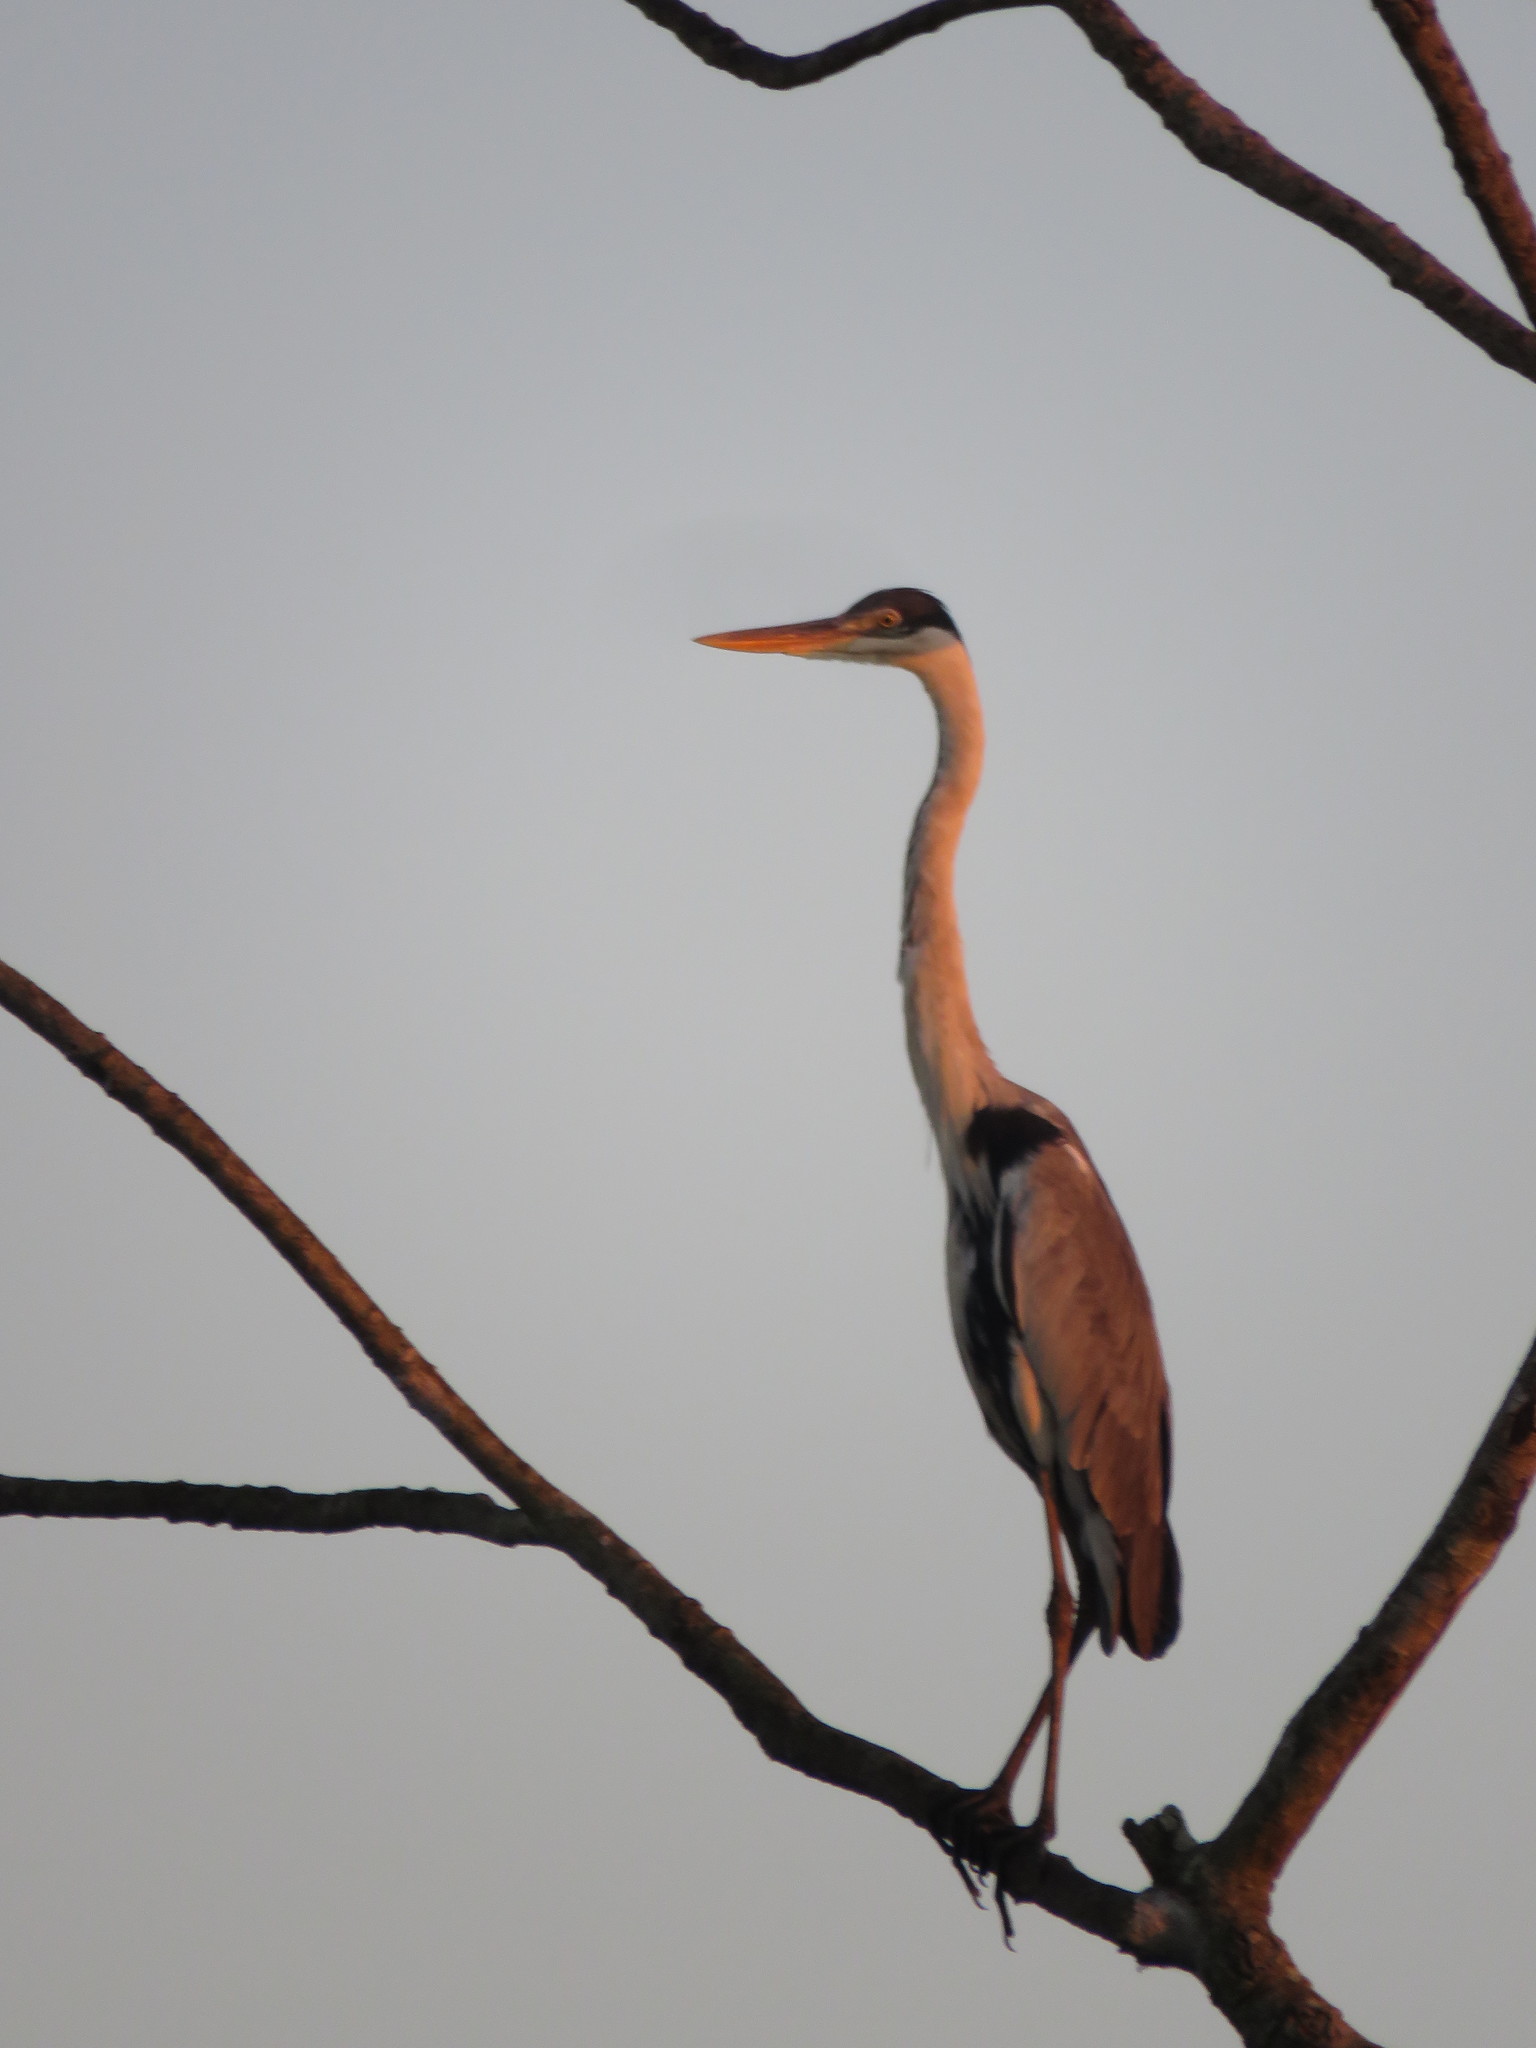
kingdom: Animalia
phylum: Chordata
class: Aves
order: Pelecaniformes
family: Ardeidae
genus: Ardea
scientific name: Ardea cocoi
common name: Cocoi heron
